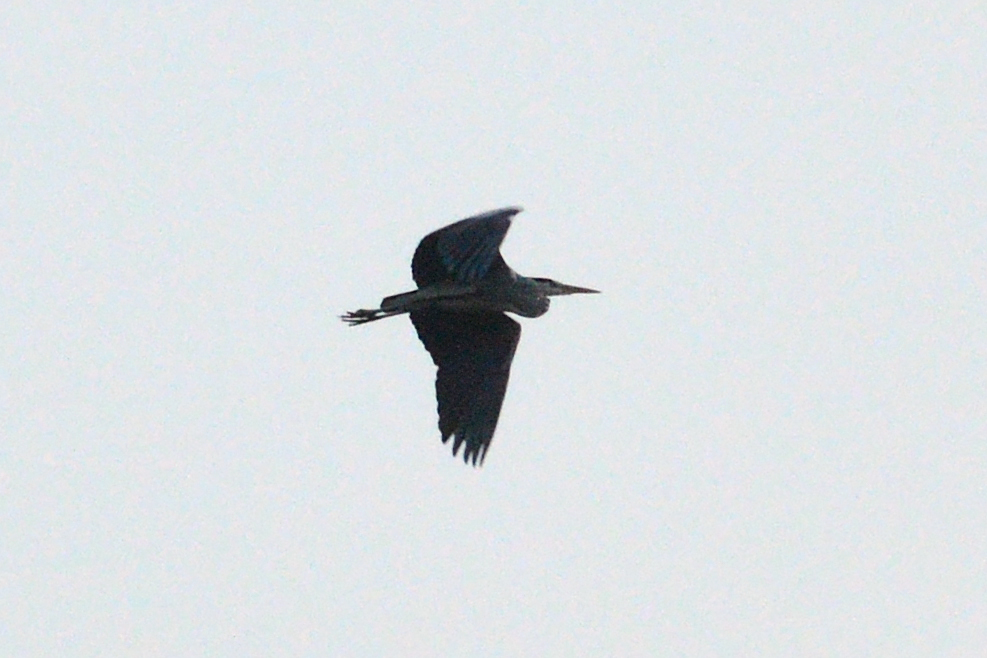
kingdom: Animalia
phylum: Chordata
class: Aves
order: Pelecaniformes
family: Ardeidae
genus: Ardea
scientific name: Ardea cinerea
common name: Grey heron
